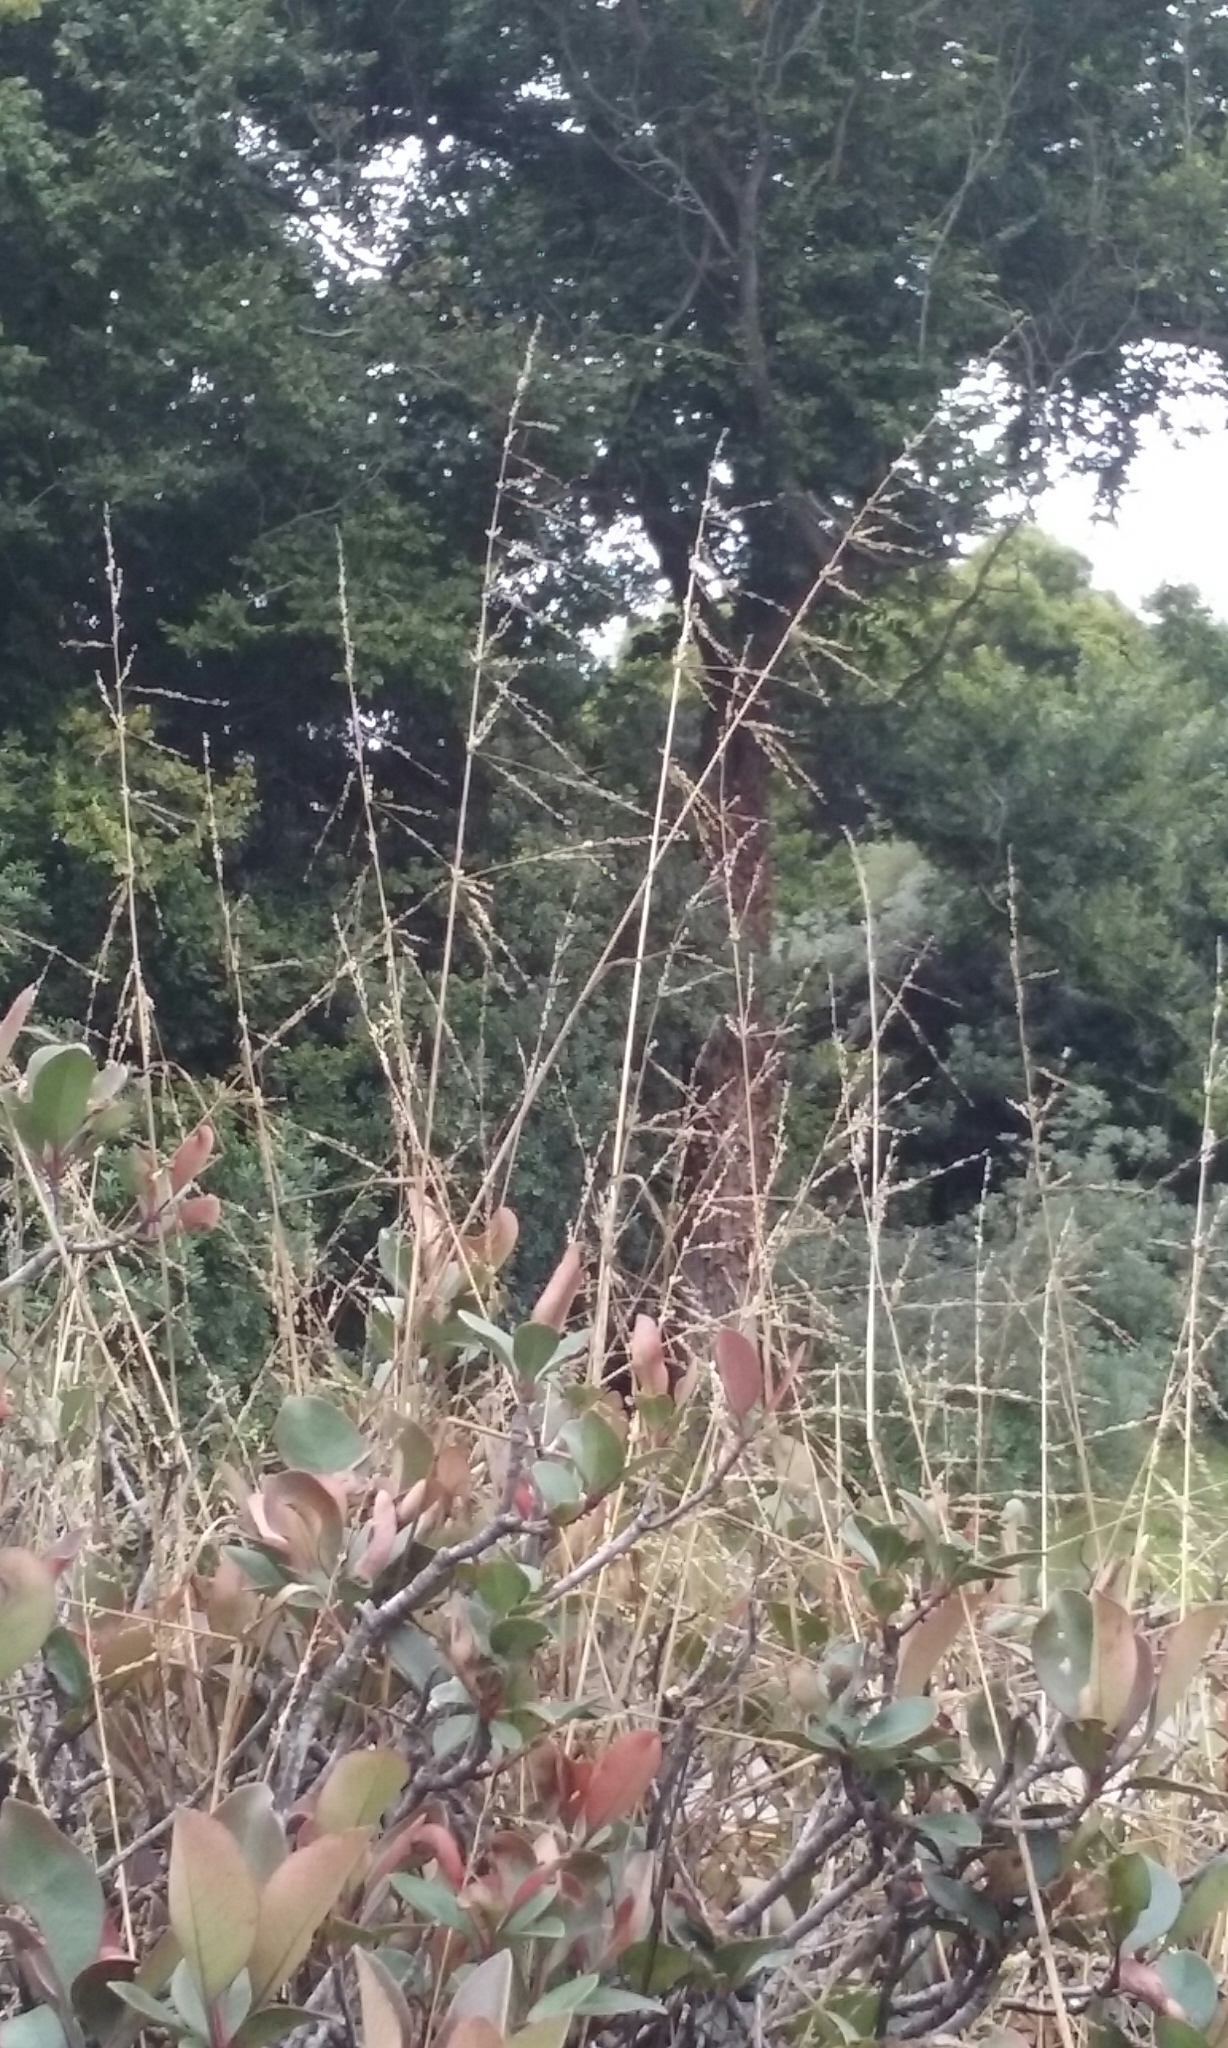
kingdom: Plantae
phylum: Tracheophyta
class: Liliopsida
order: Poales
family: Poaceae
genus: Ehrharta
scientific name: Ehrharta erecta
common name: Panic veldtgrass
